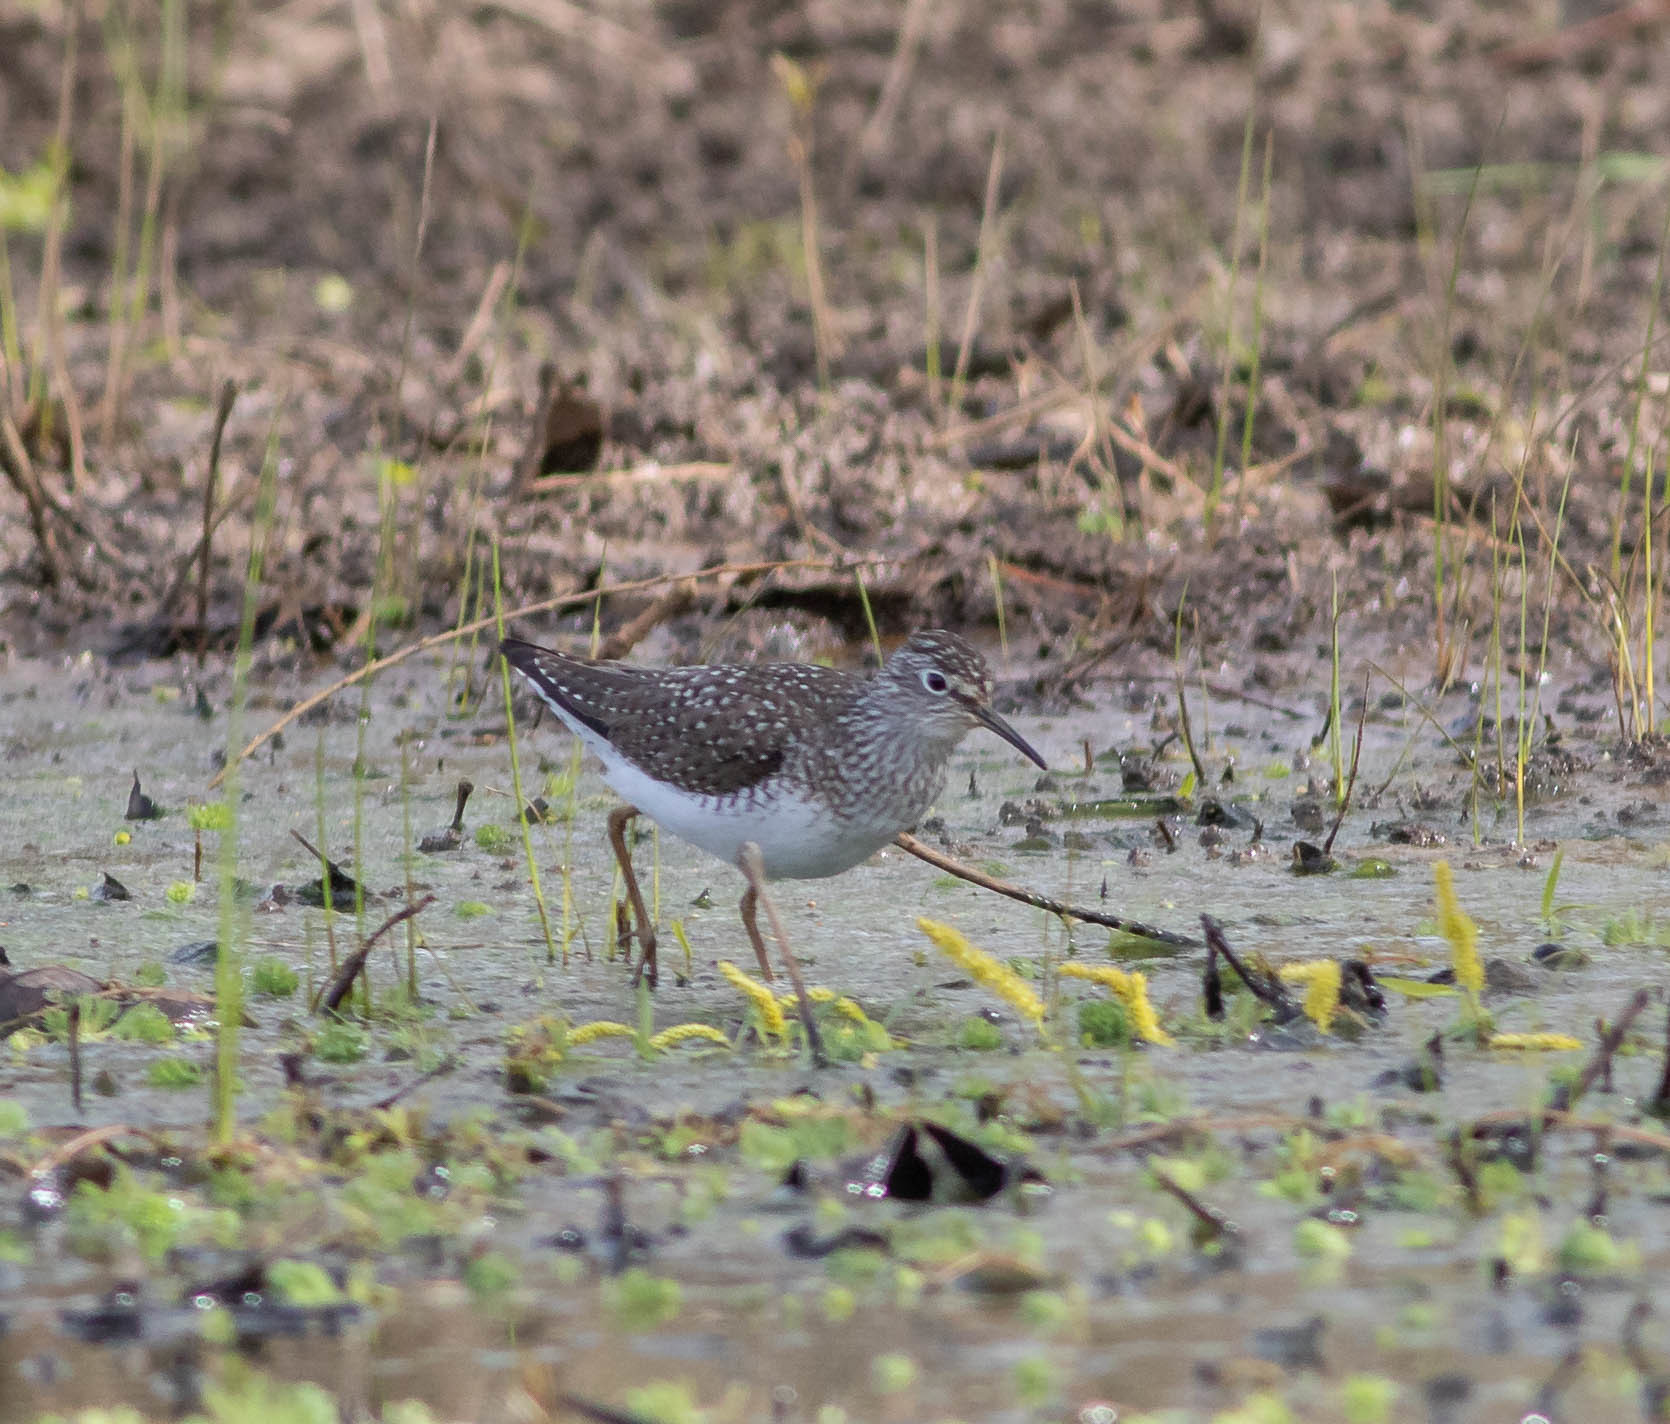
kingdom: Animalia
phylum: Chordata
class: Aves
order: Charadriiformes
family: Scolopacidae
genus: Tringa
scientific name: Tringa solitaria
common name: Solitary sandpiper
